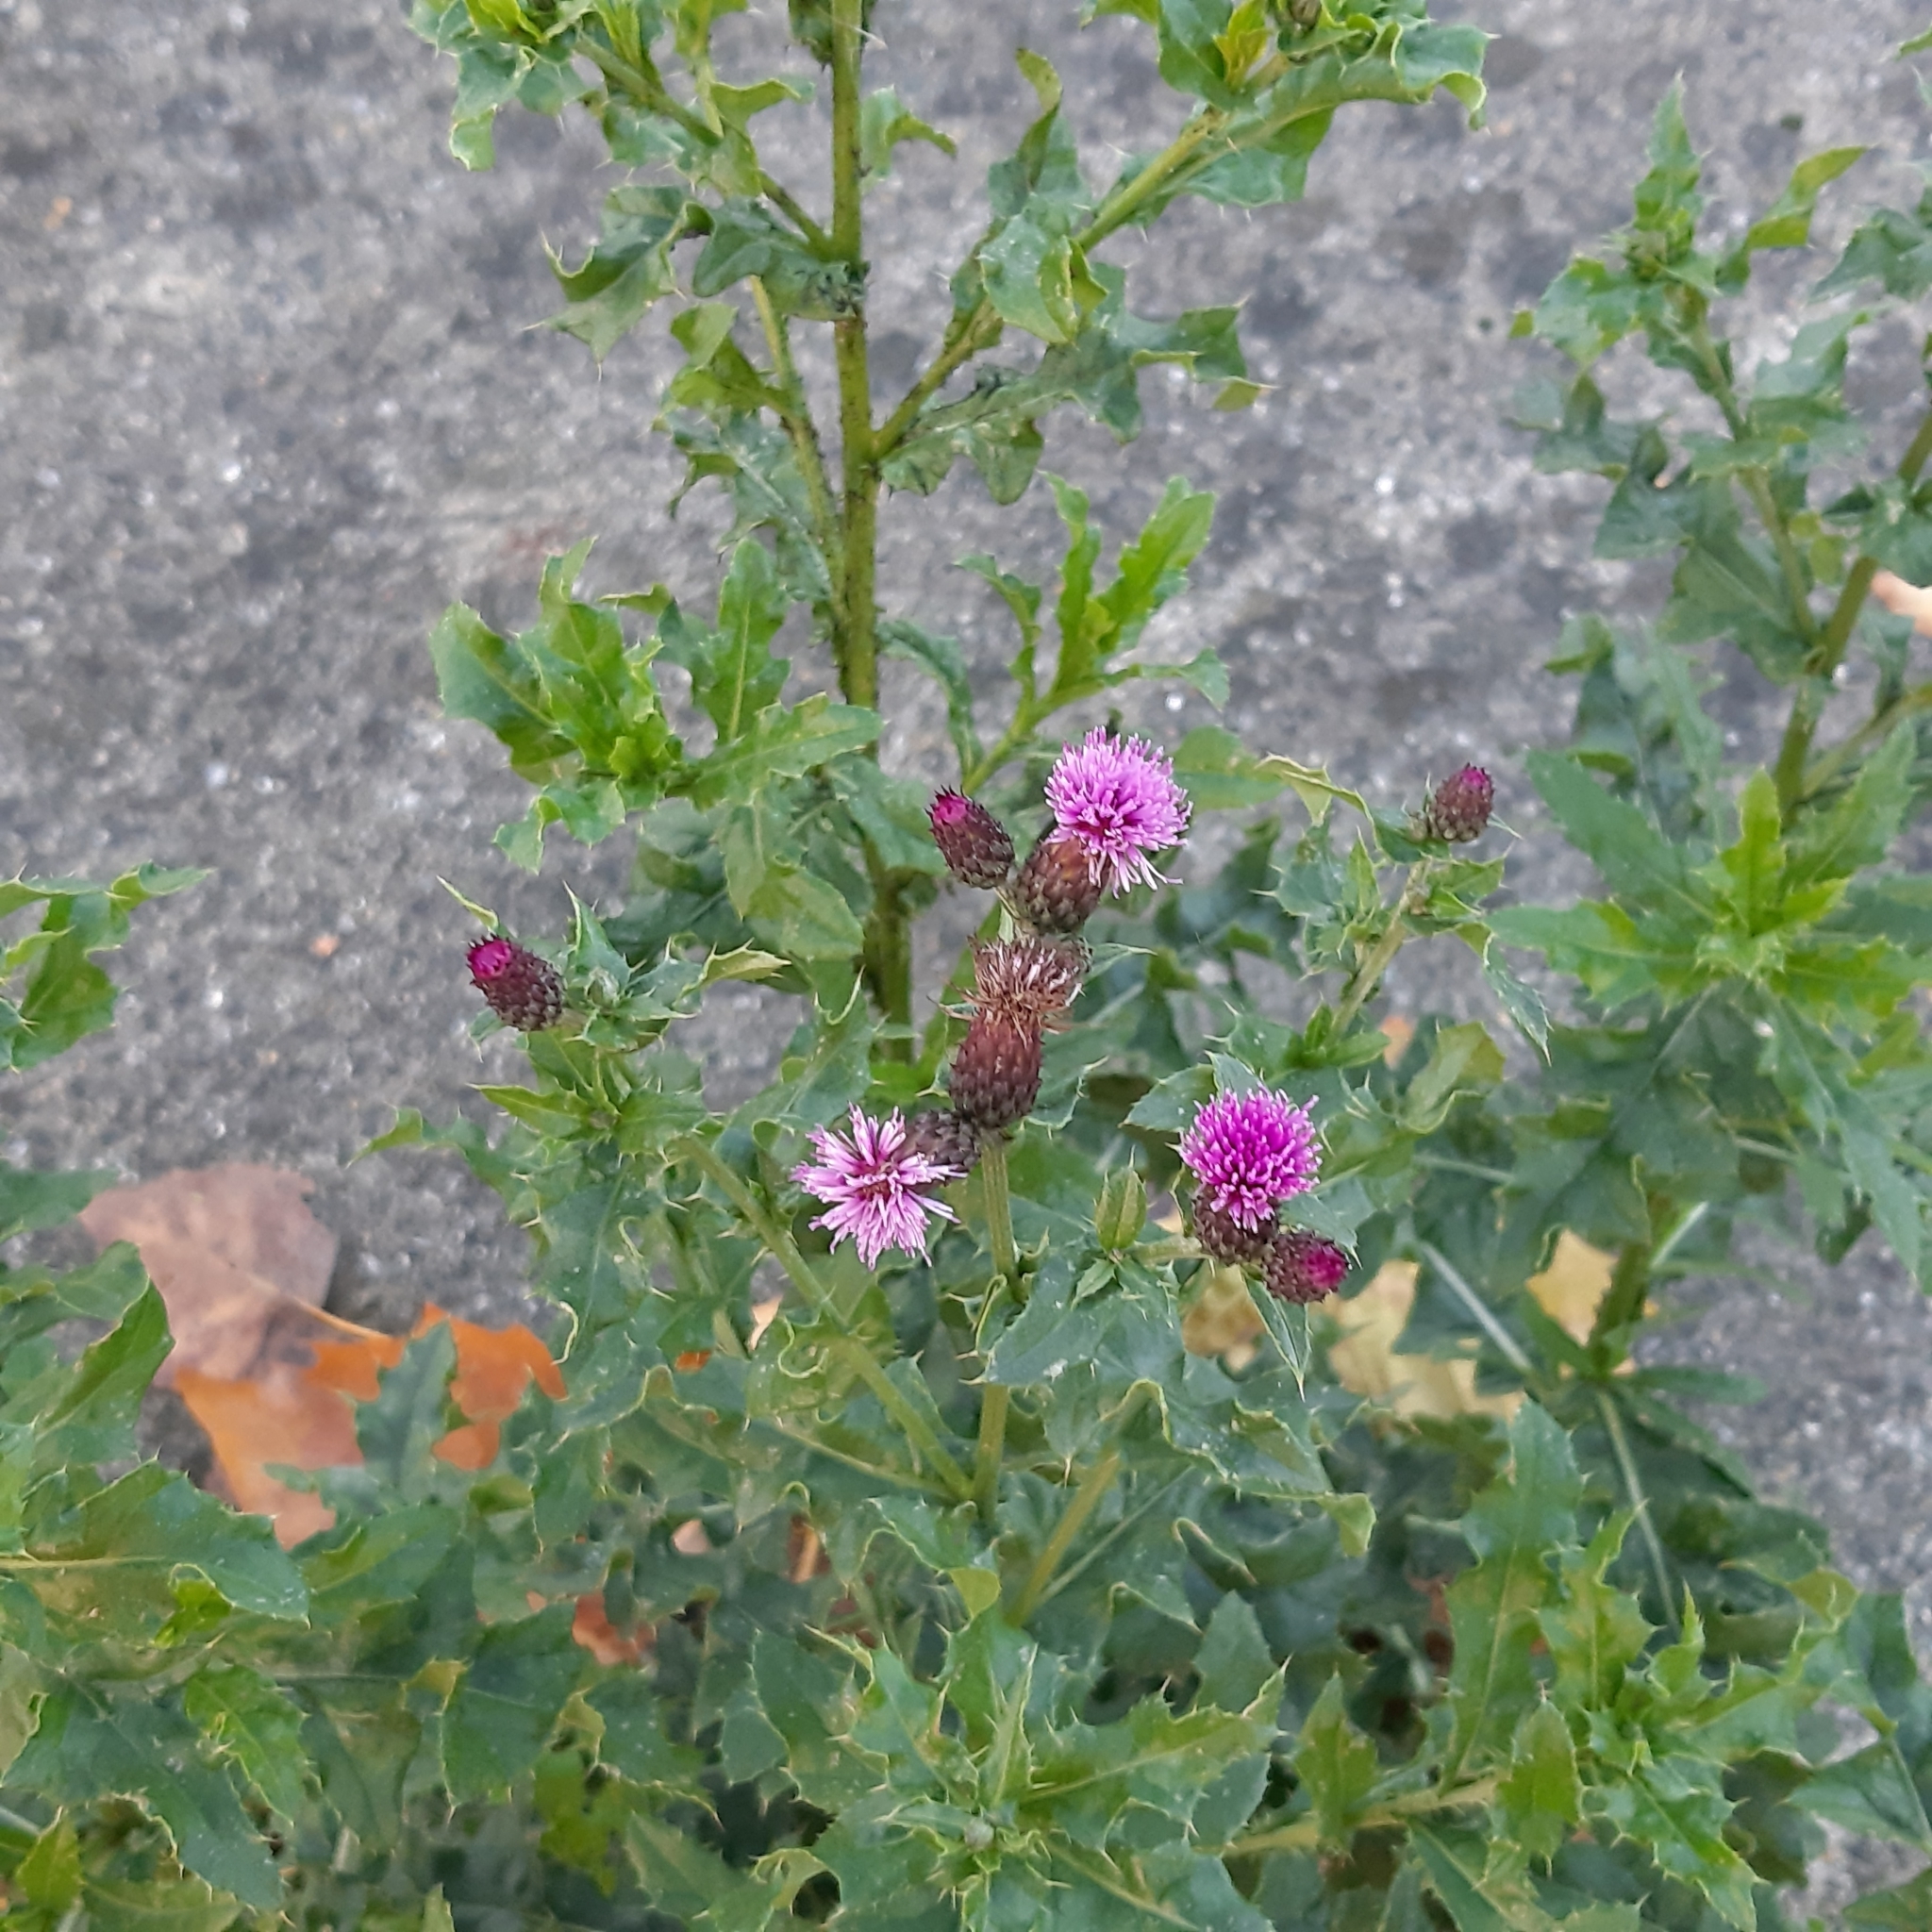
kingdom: Plantae
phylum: Tracheophyta
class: Magnoliopsida
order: Asterales
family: Asteraceae
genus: Cirsium
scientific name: Cirsium arvense
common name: Creeping thistle
